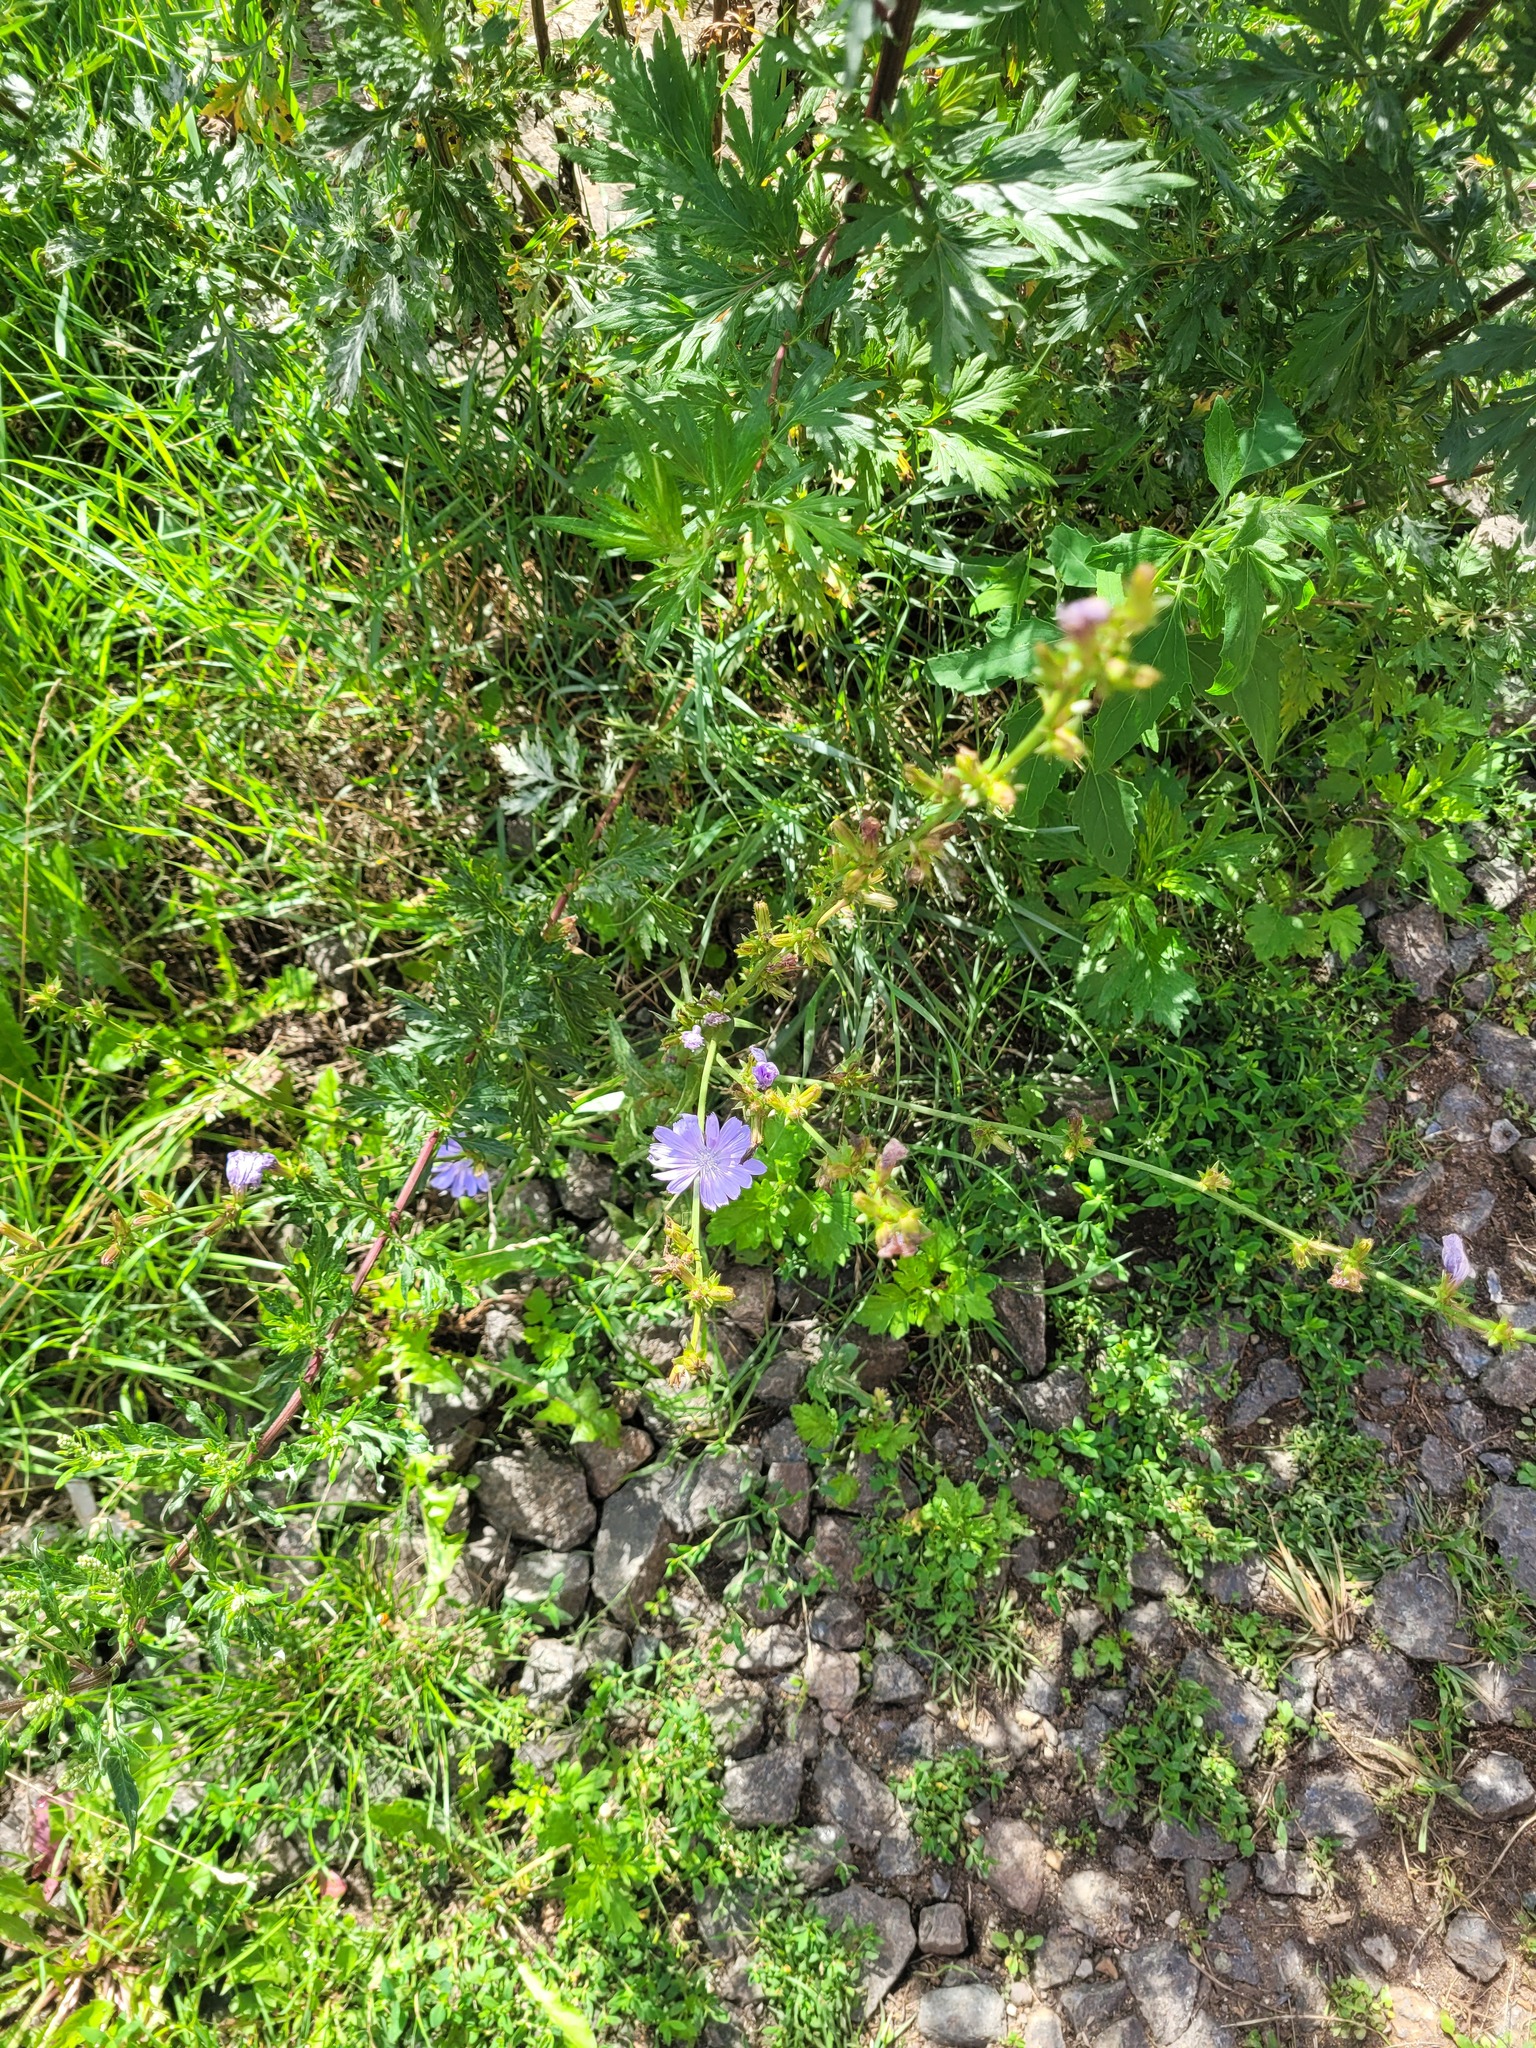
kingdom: Plantae
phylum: Tracheophyta
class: Magnoliopsida
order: Asterales
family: Asteraceae
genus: Cichorium
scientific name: Cichorium intybus
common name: Chicory
